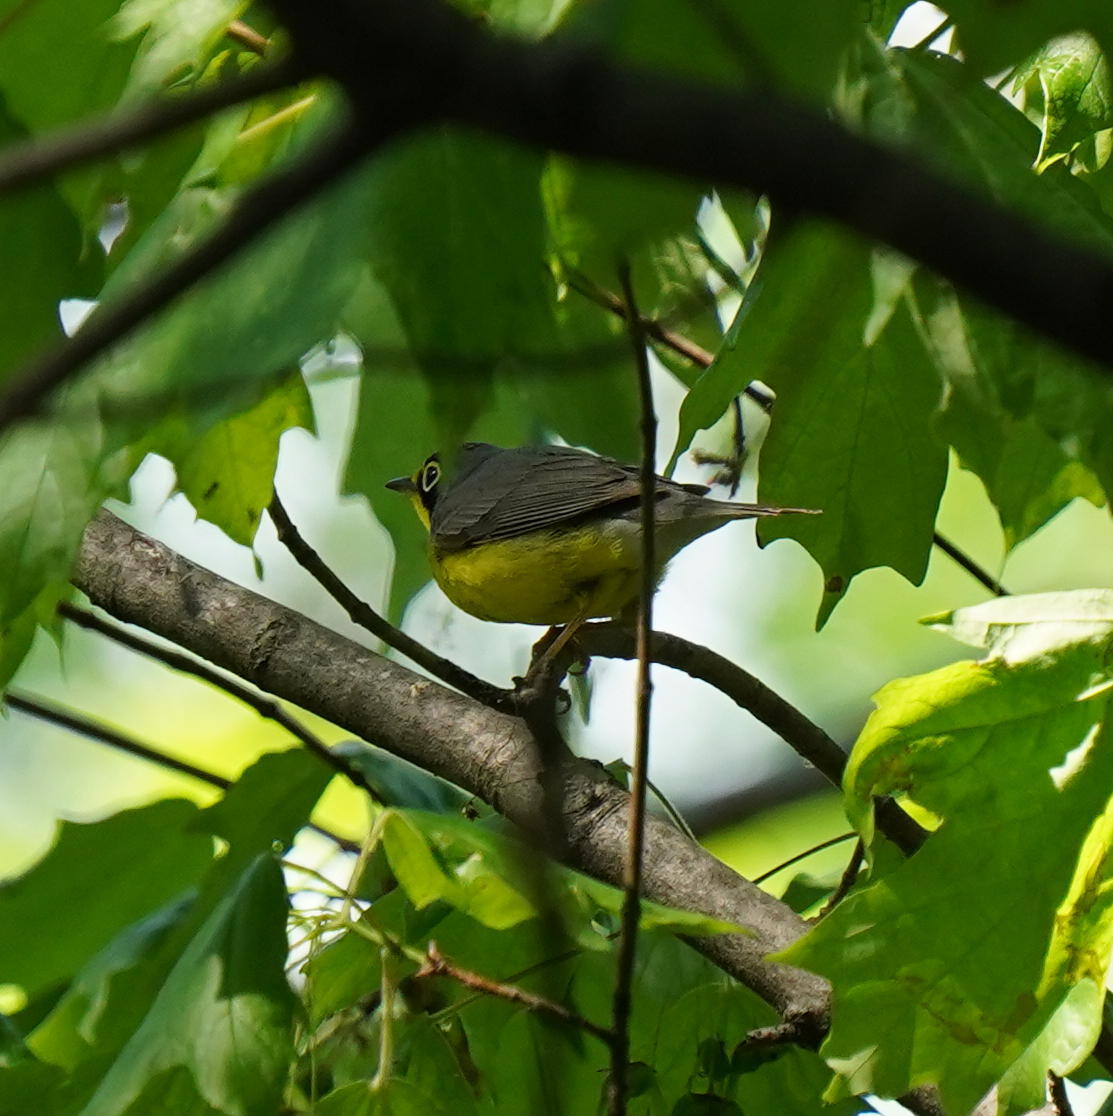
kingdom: Animalia
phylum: Chordata
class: Aves
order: Passeriformes
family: Parulidae
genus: Cardellina
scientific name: Cardellina canadensis
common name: Canada warbler
